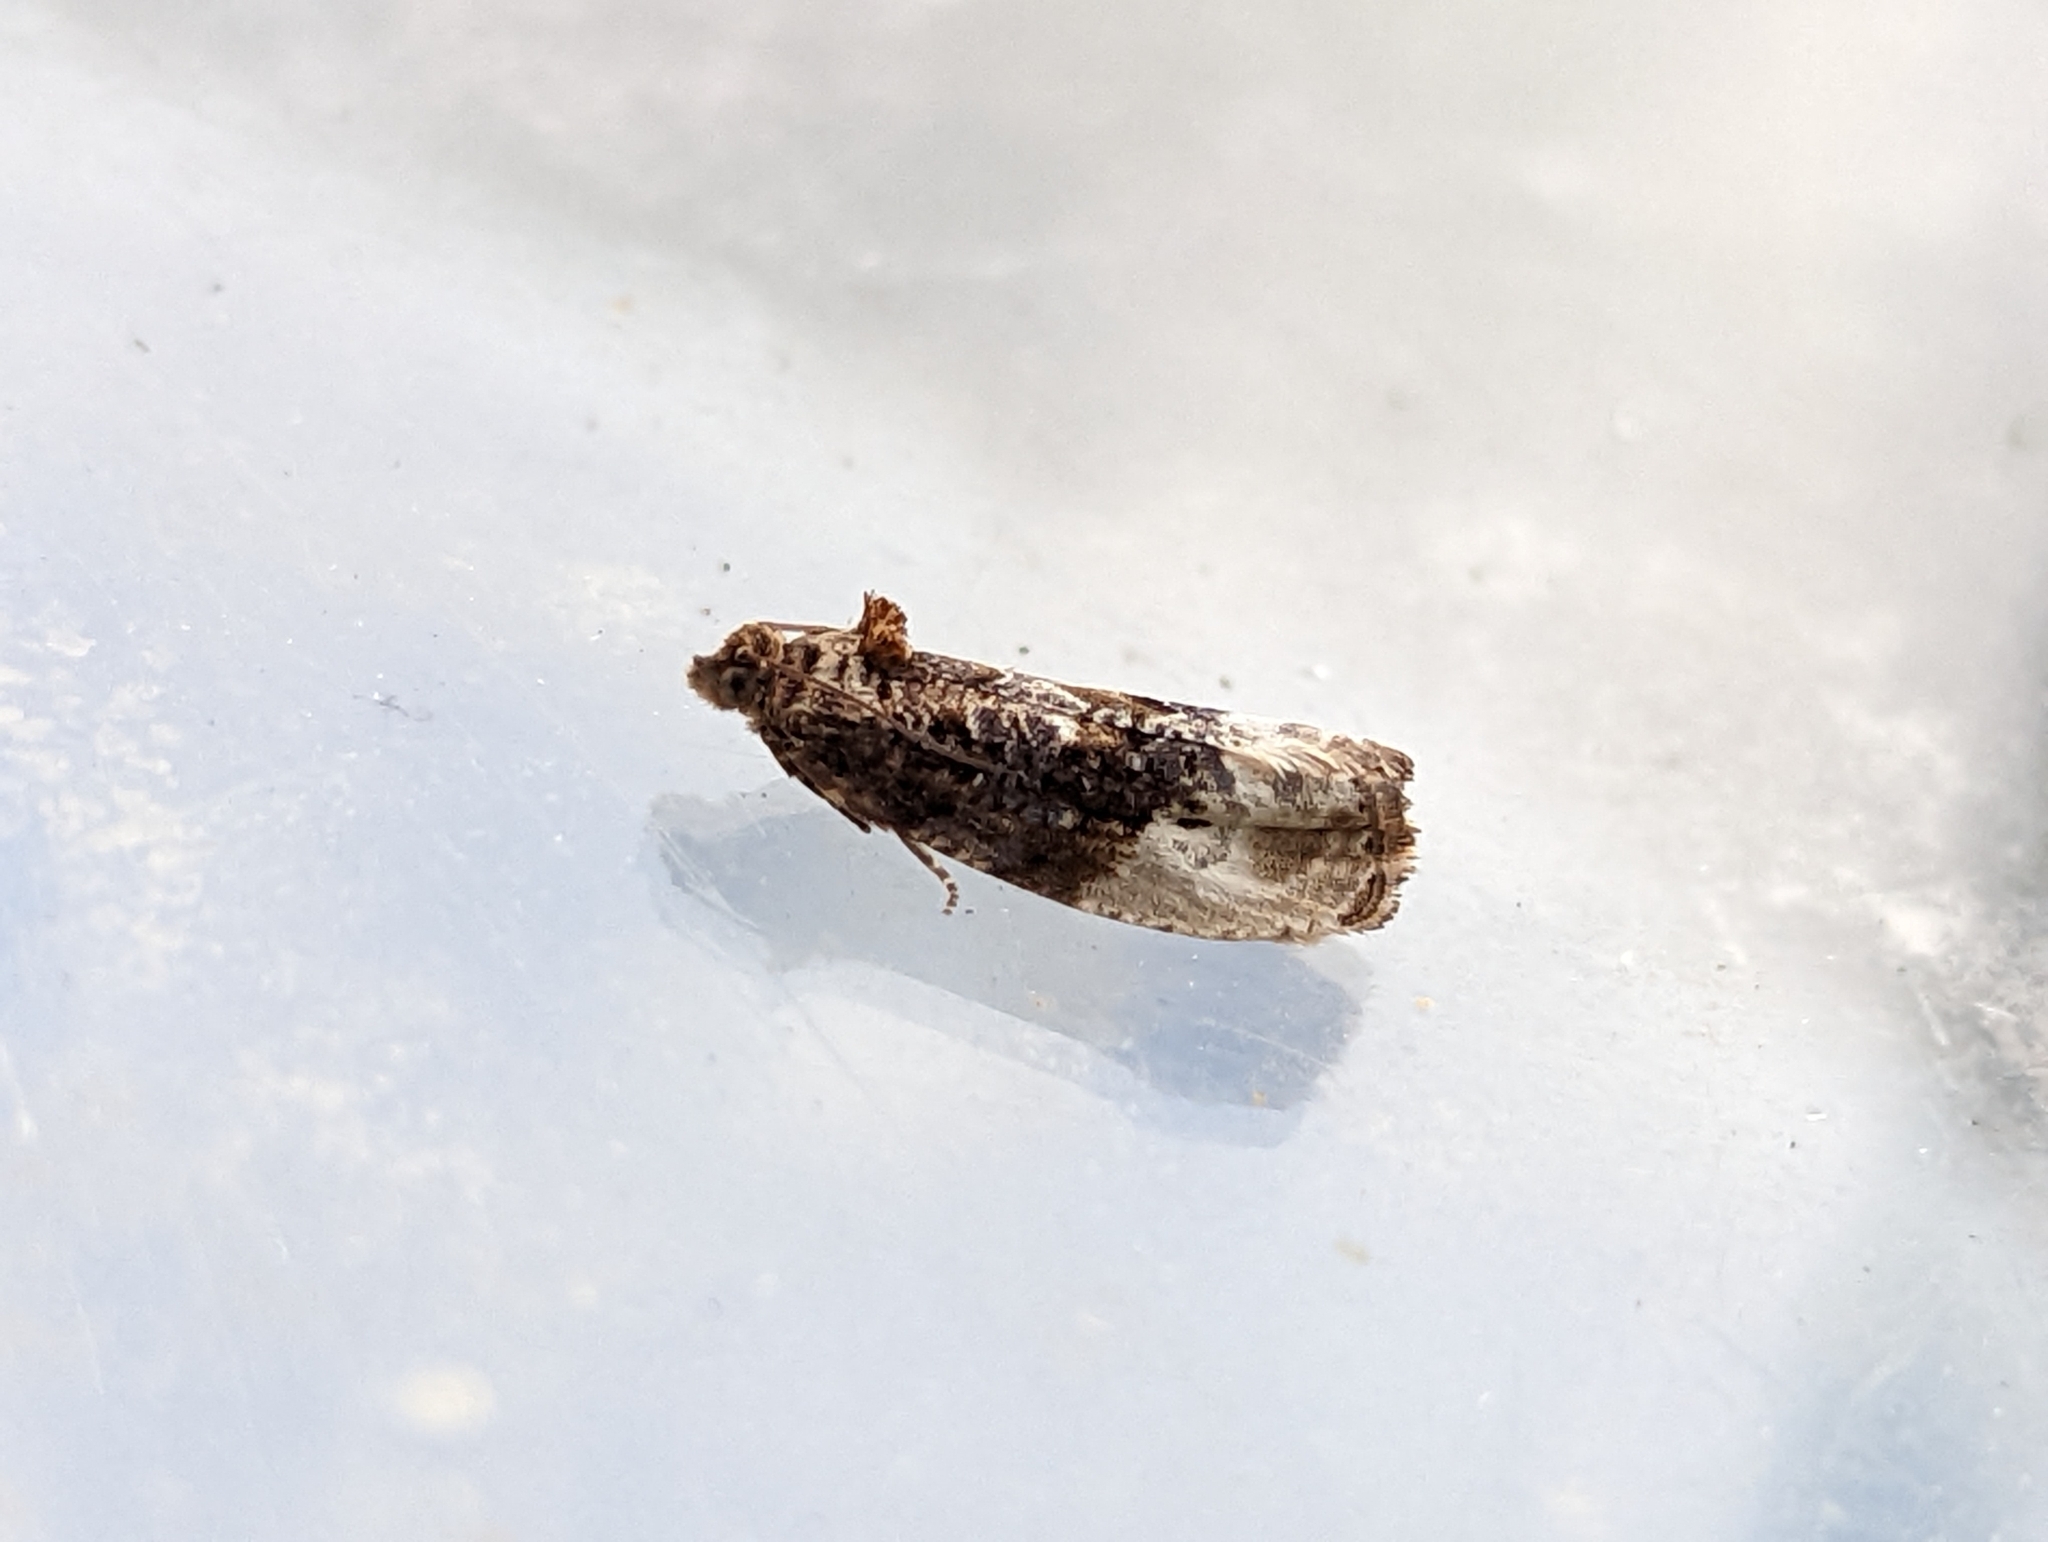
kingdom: Animalia
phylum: Arthropoda
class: Insecta
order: Lepidoptera
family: Tortricidae
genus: Hedya
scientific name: Hedya nubiferana
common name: Marbled orchard tortrix
